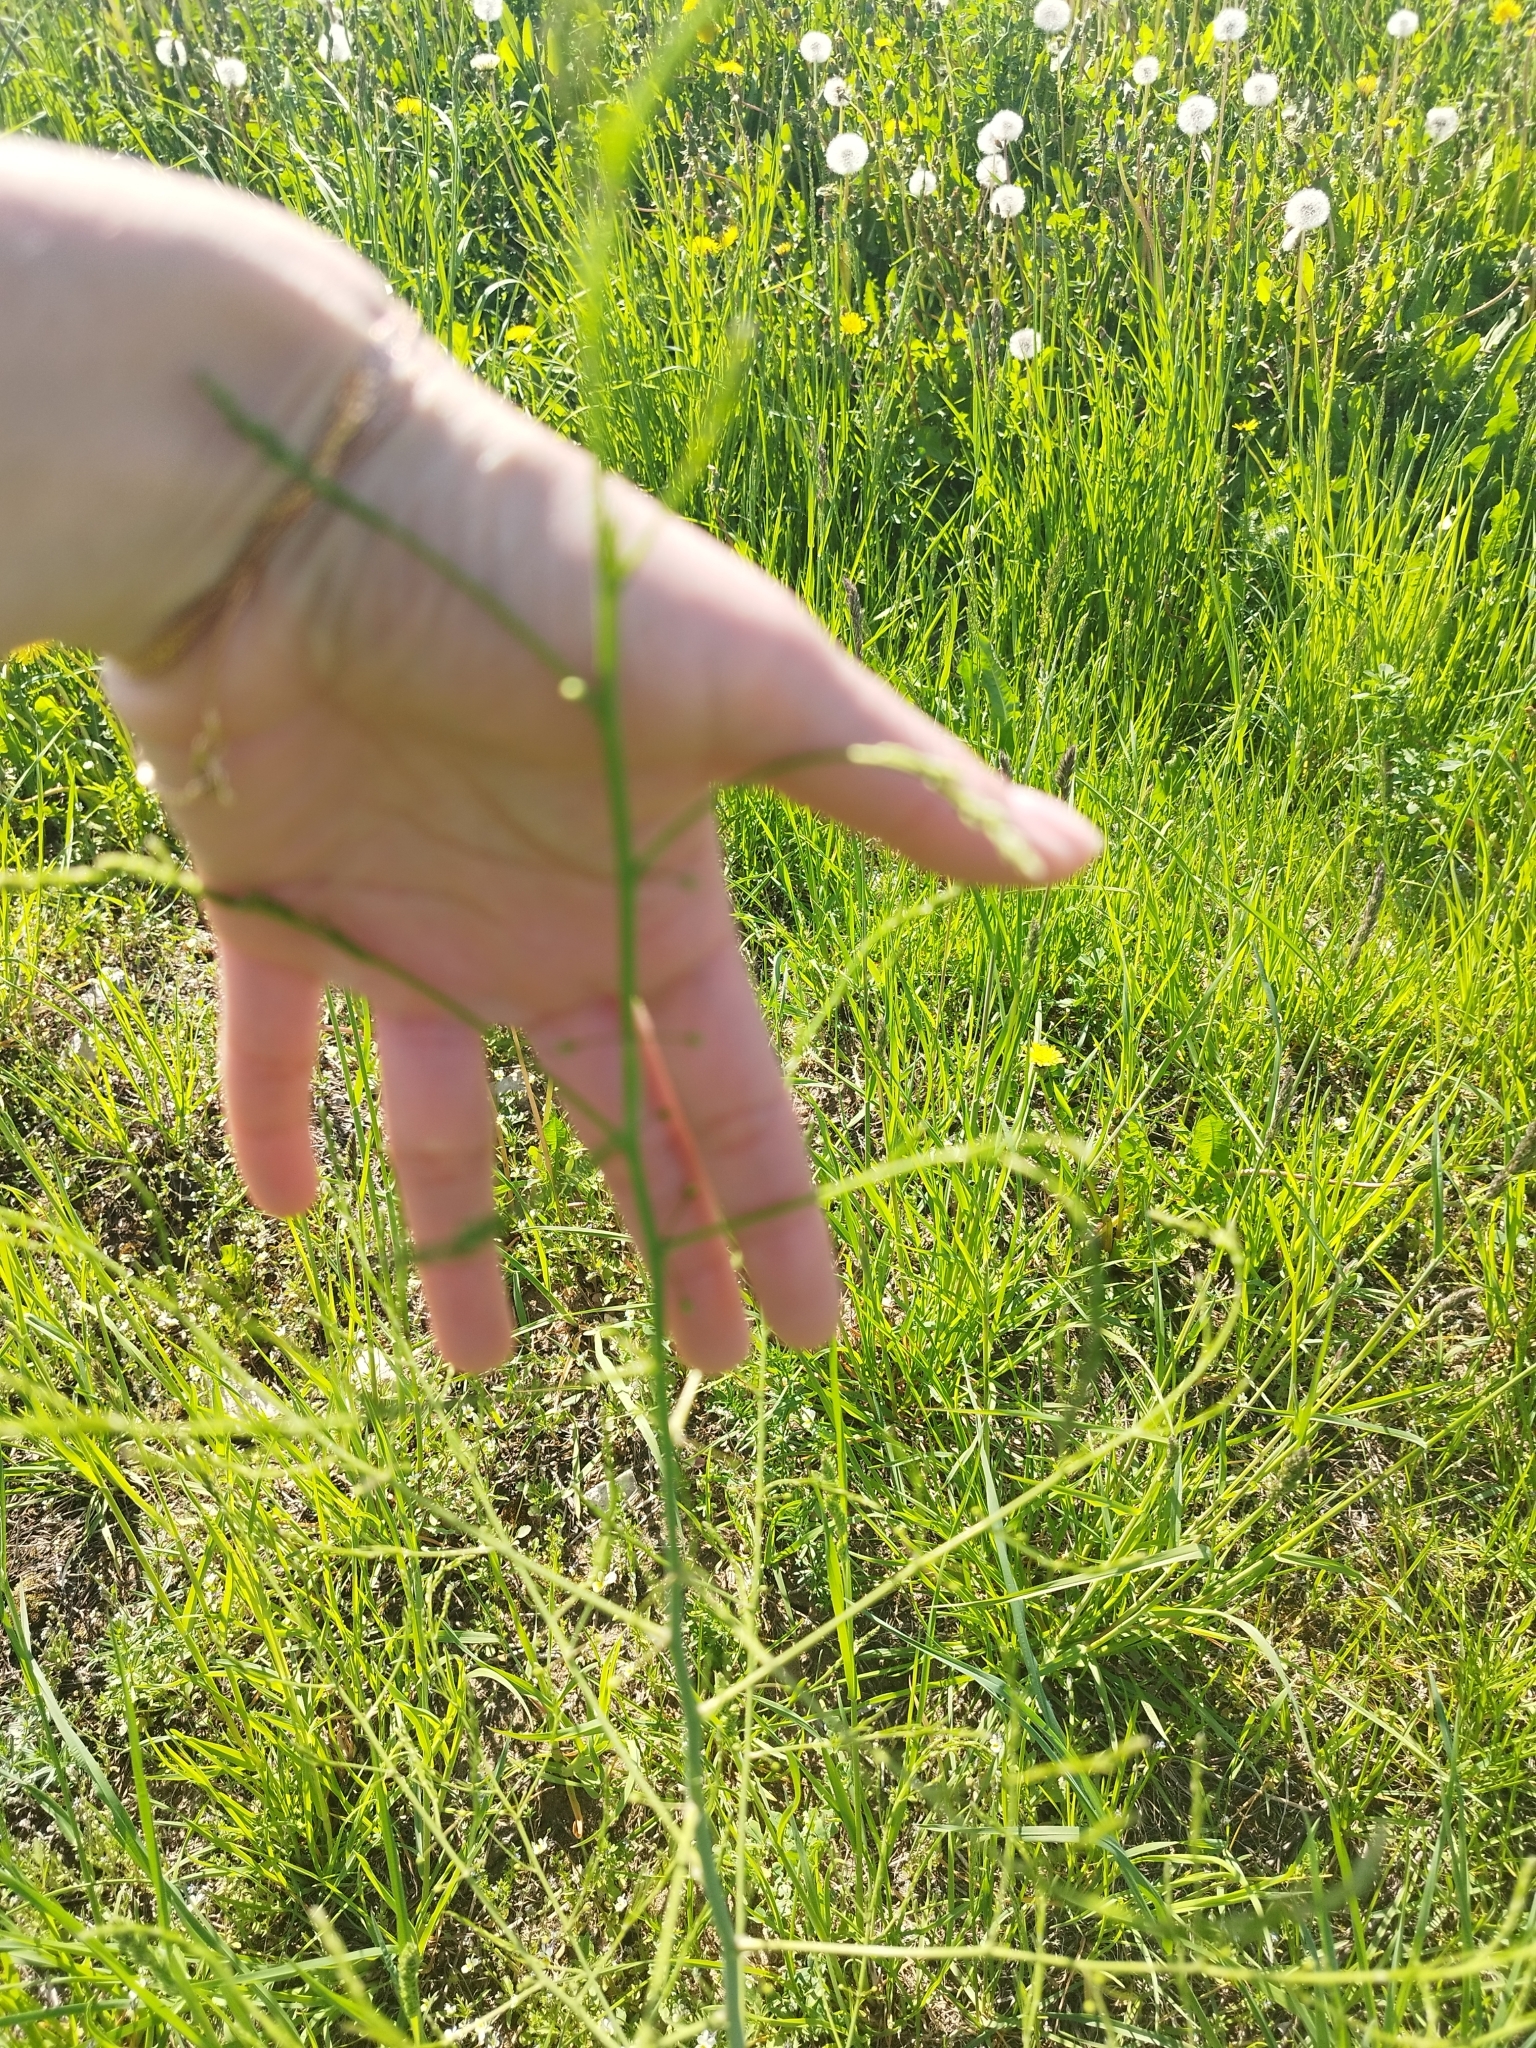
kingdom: Plantae
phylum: Tracheophyta
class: Liliopsida
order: Asparagales
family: Asparagaceae
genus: Asparagus
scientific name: Asparagus officinalis
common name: Garden asparagus
